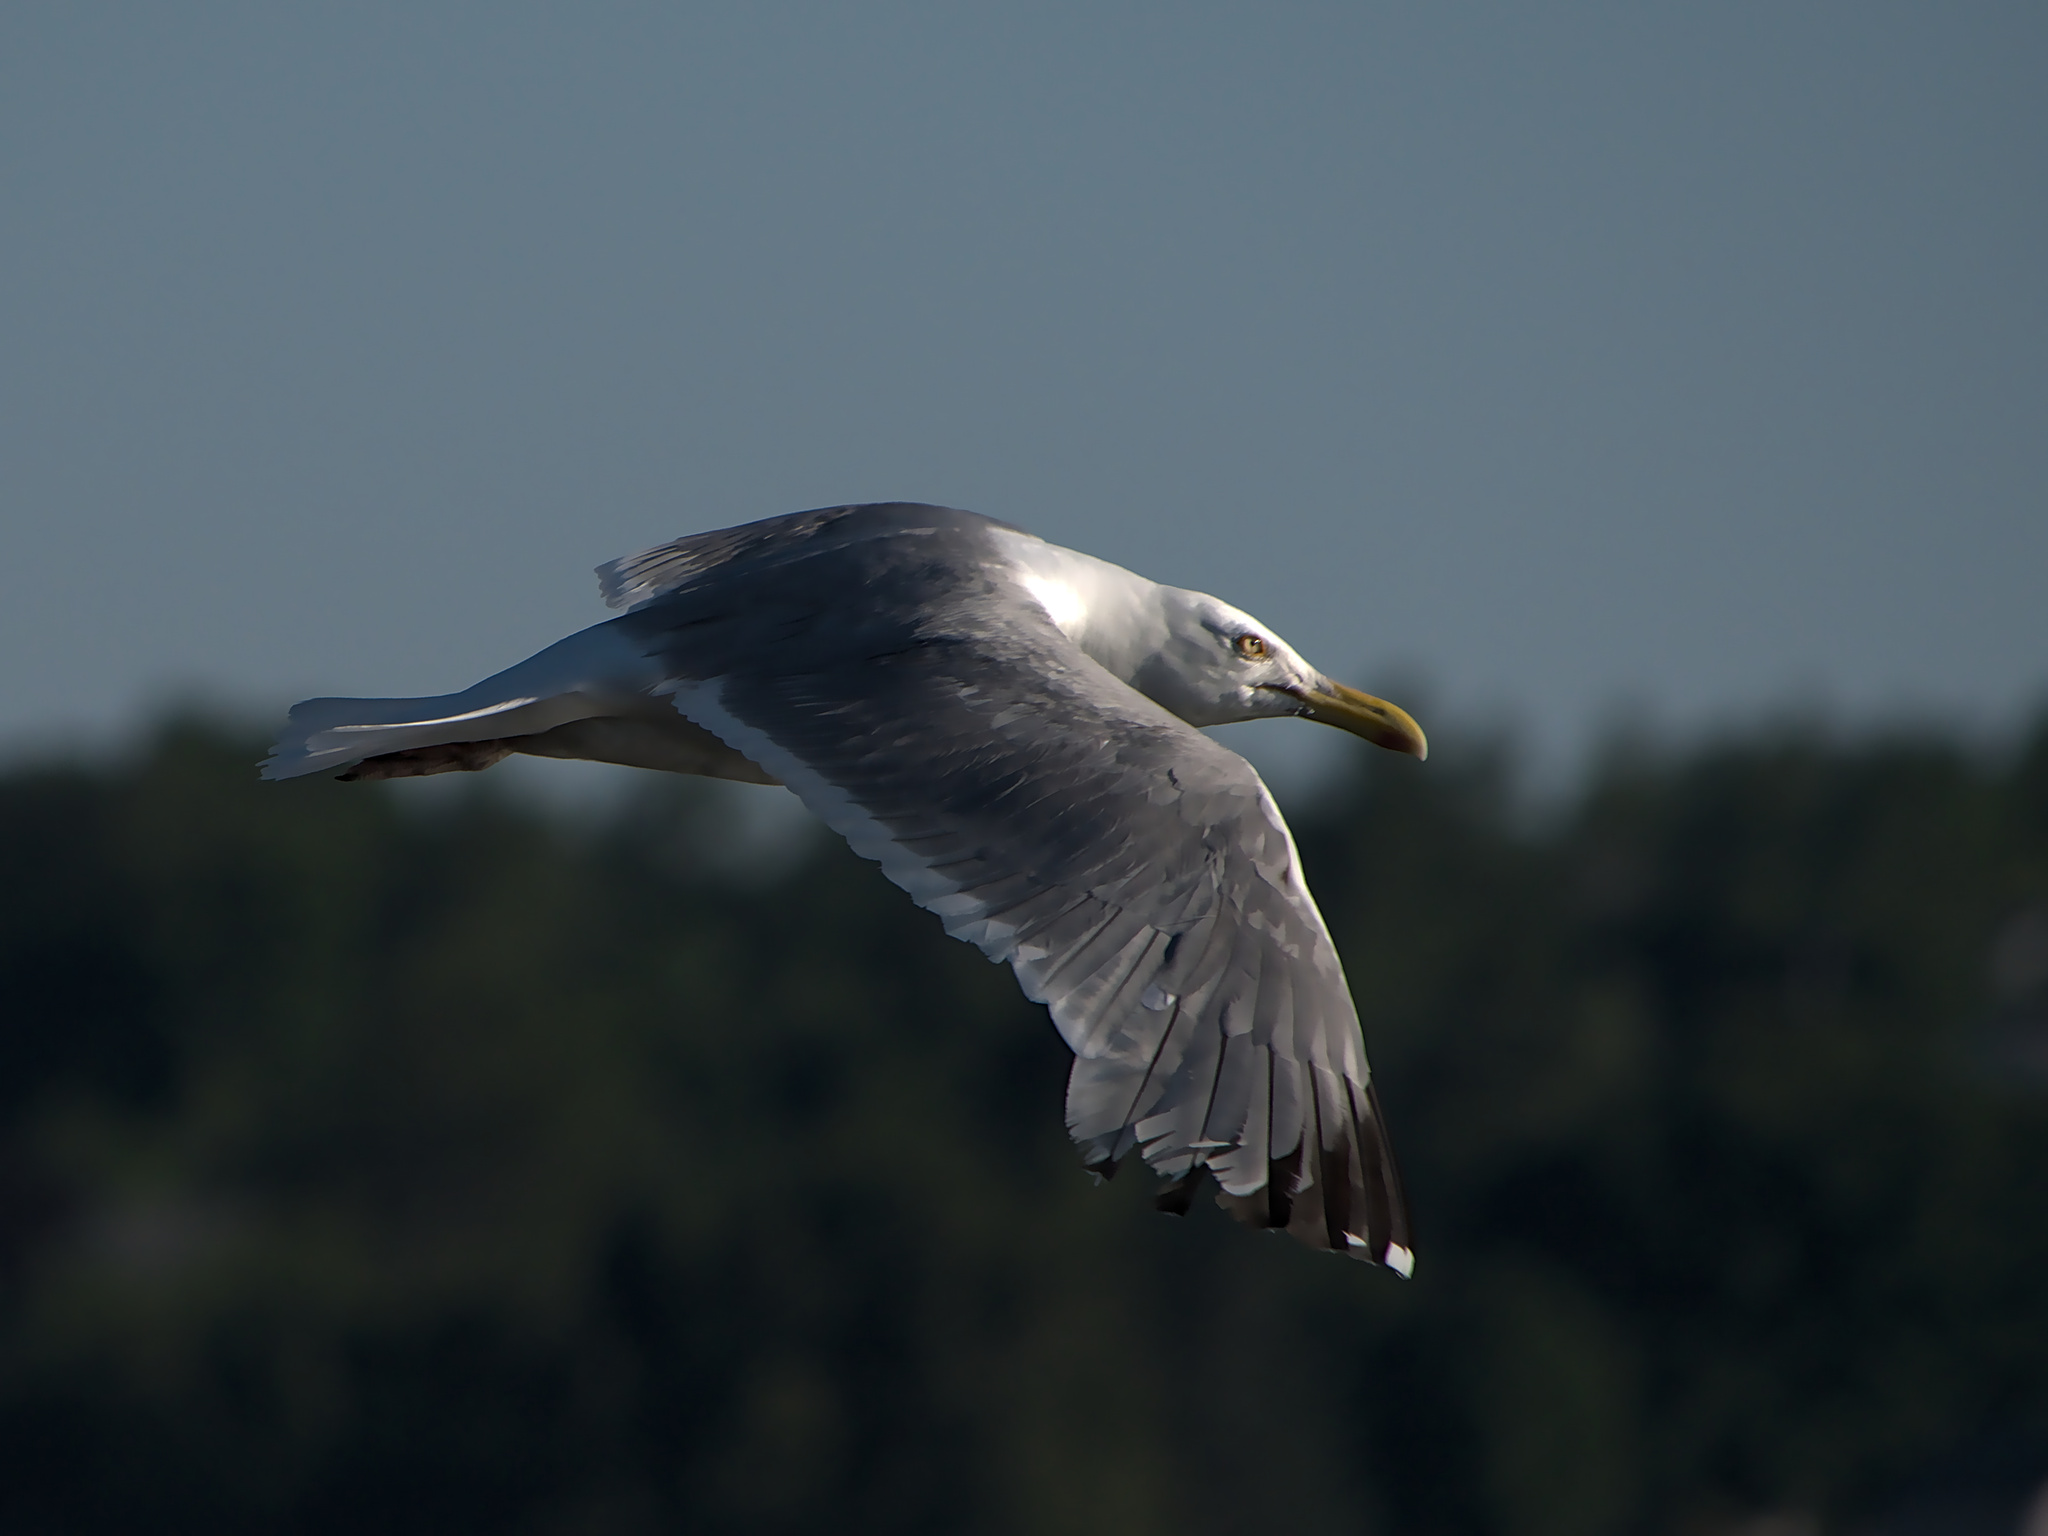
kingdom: Animalia
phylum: Chordata
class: Aves
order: Charadriiformes
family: Laridae
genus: Larus
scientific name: Larus argentatus
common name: Herring gull
